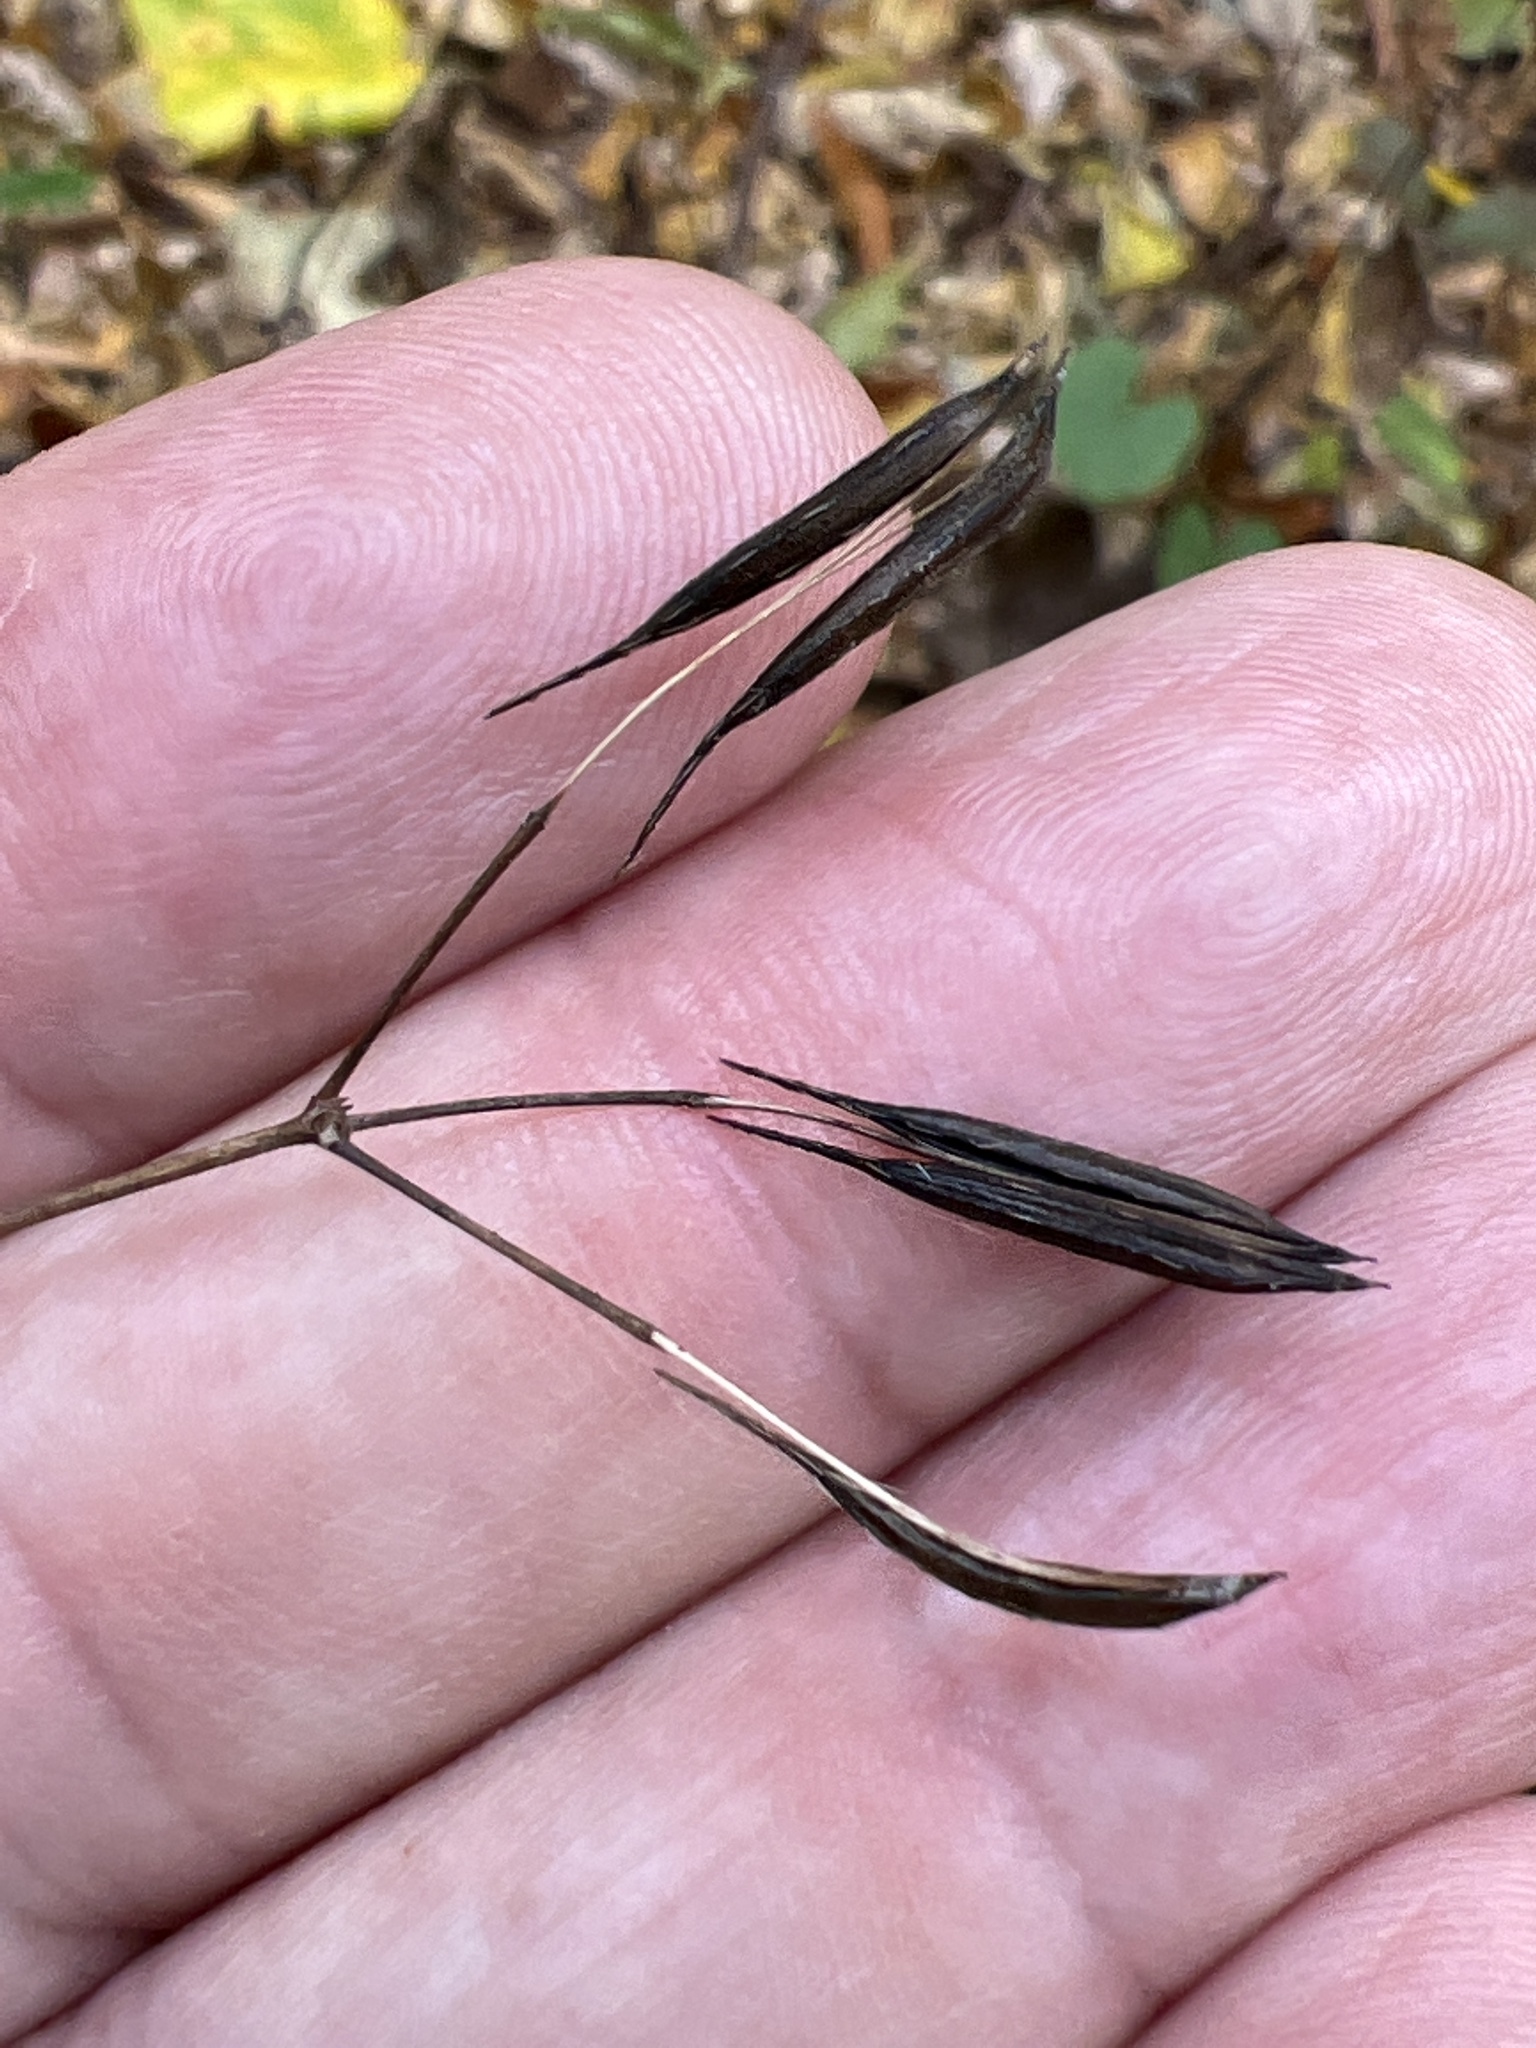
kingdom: Plantae
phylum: Tracheophyta
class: Magnoliopsida
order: Apiales
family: Apiaceae
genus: Osmorhiza
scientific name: Osmorhiza claytonii
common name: Hairy sweet cicely
